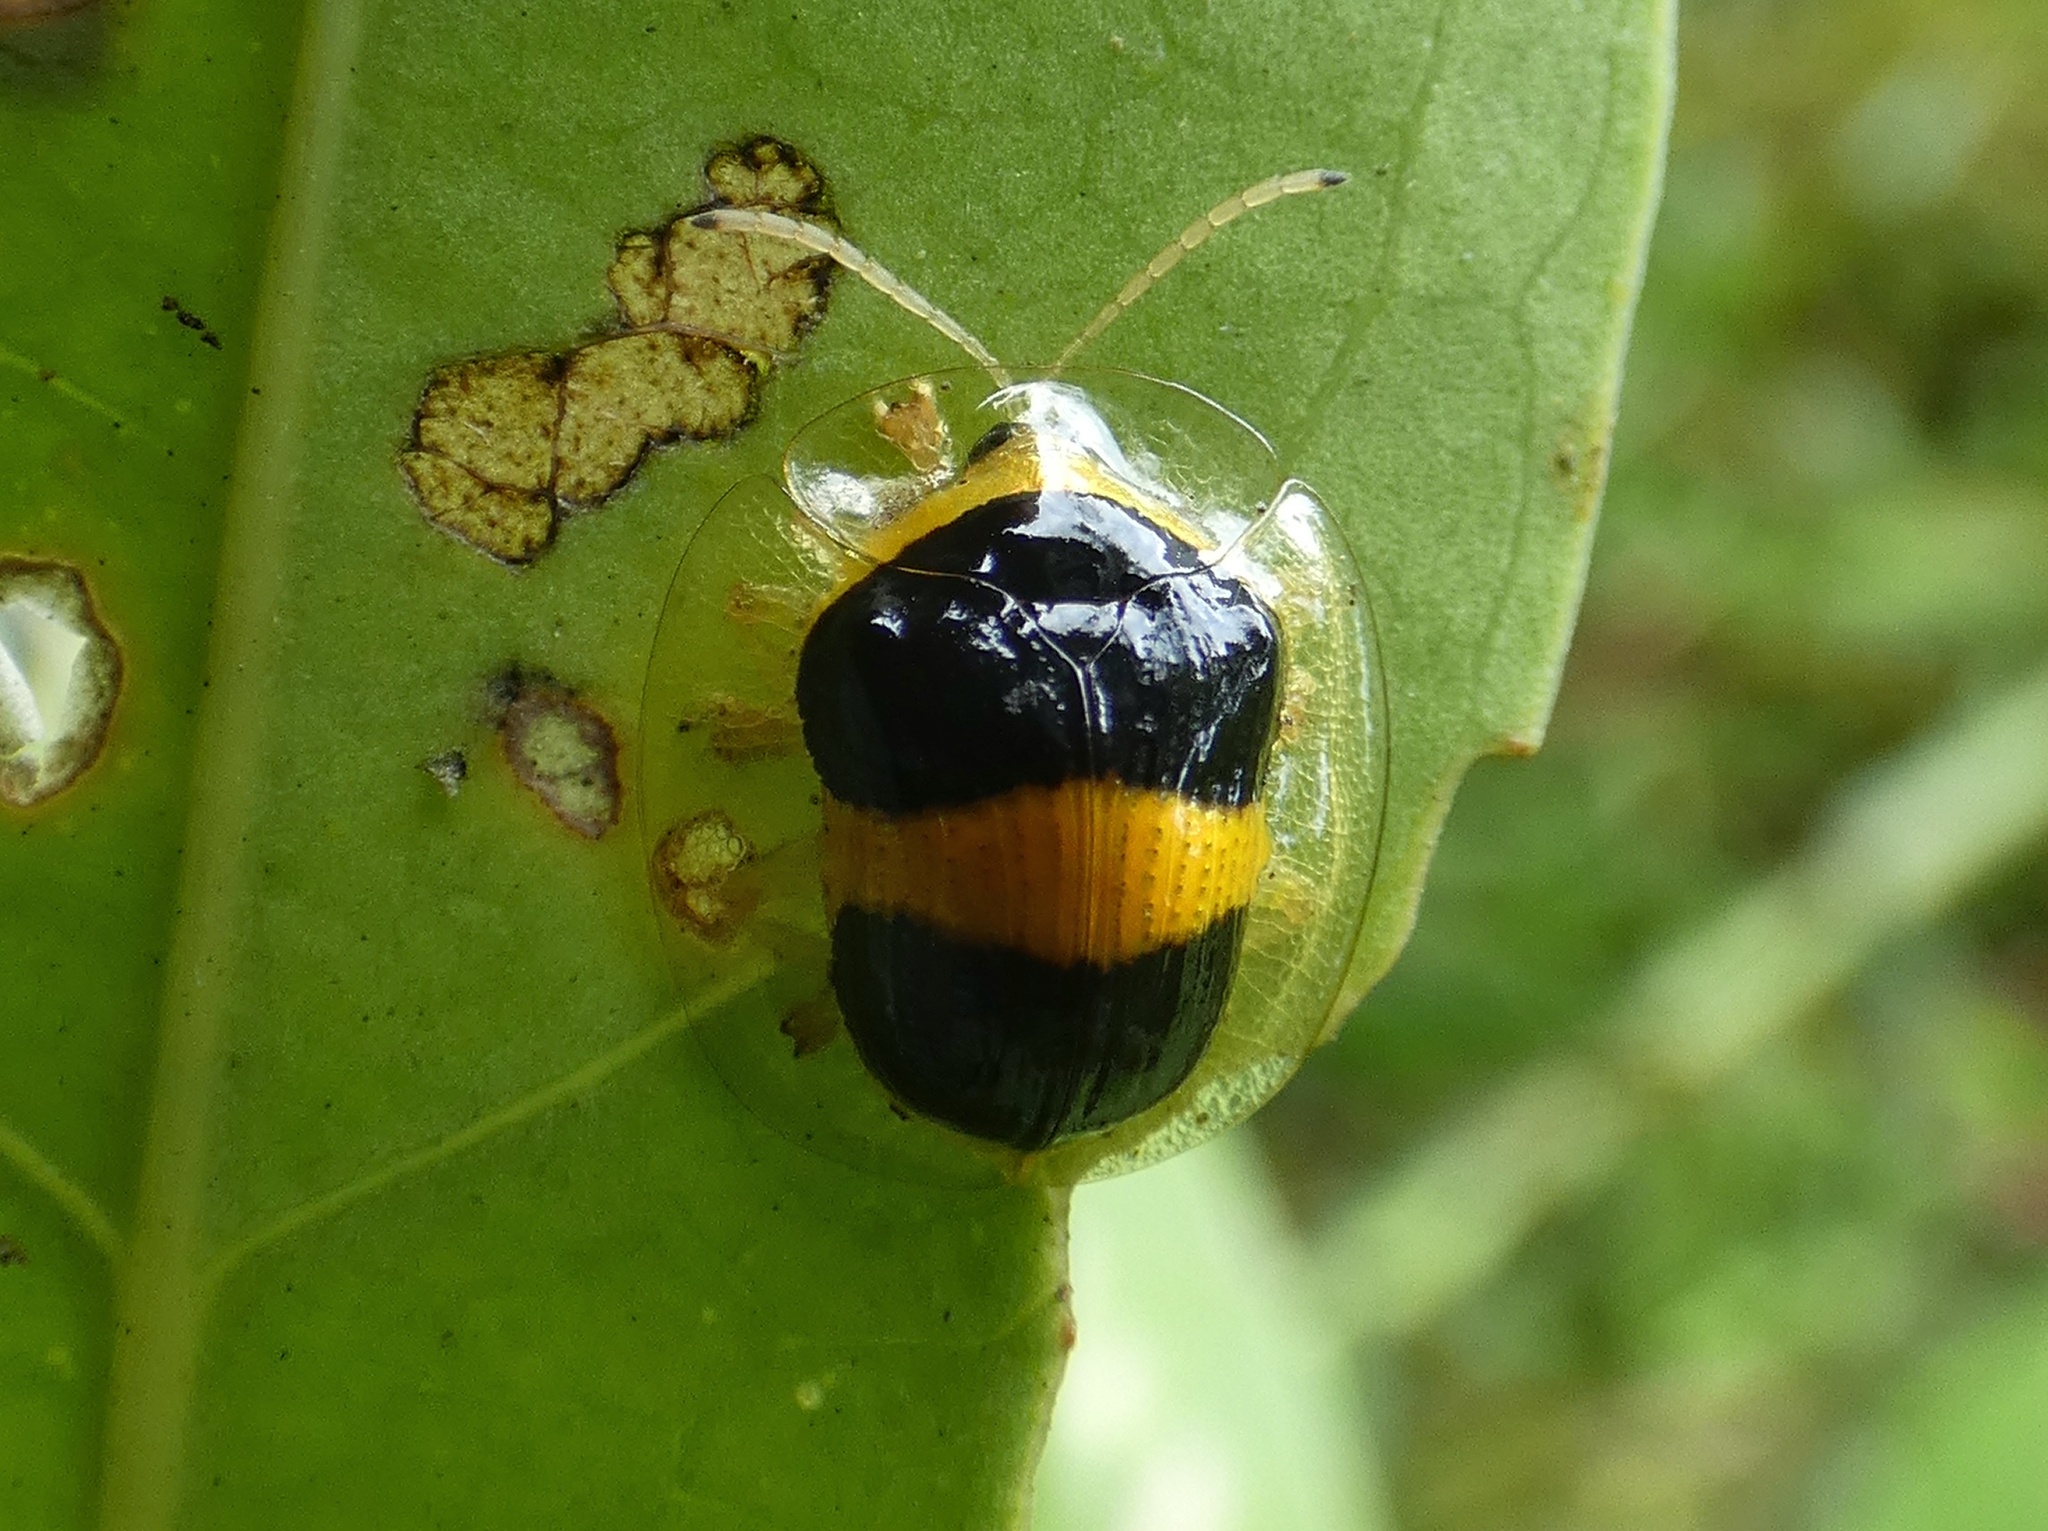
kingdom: Animalia
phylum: Arthropoda
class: Insecta
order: Coleoptera
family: Chrysomelidae
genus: Charidotis
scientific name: Charidotis leprieuri
